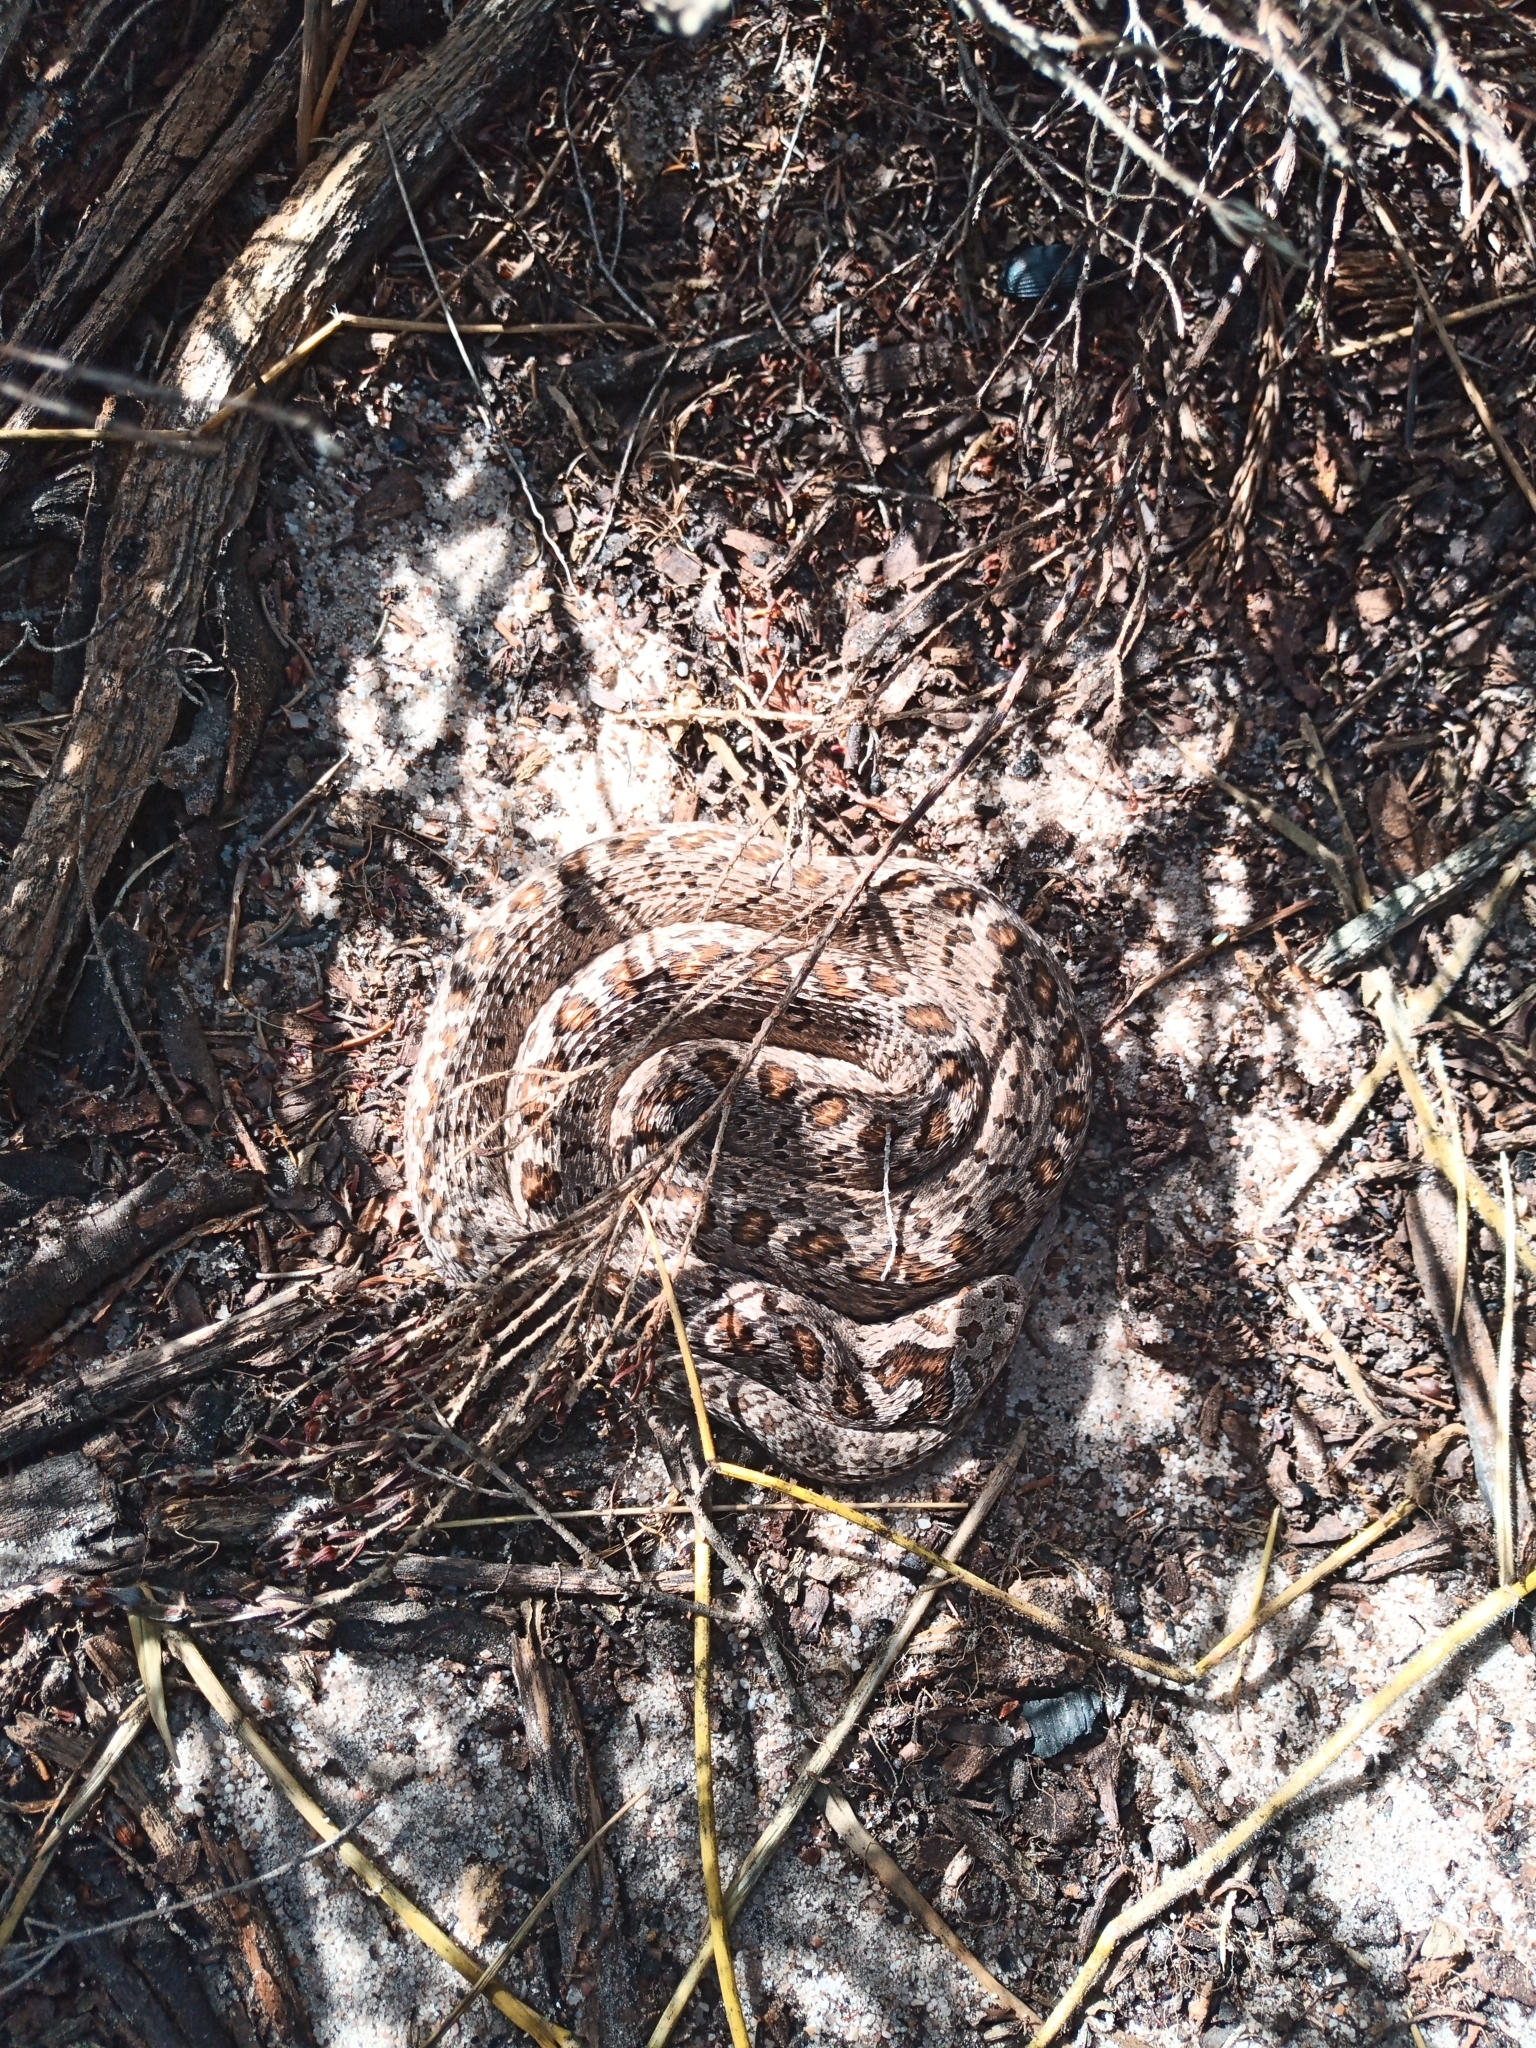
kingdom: Animalia
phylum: Chordata
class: Squamata
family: Colubridae
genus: Dasypeltis
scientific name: Dasypeltis scabra
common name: Common egg eater
